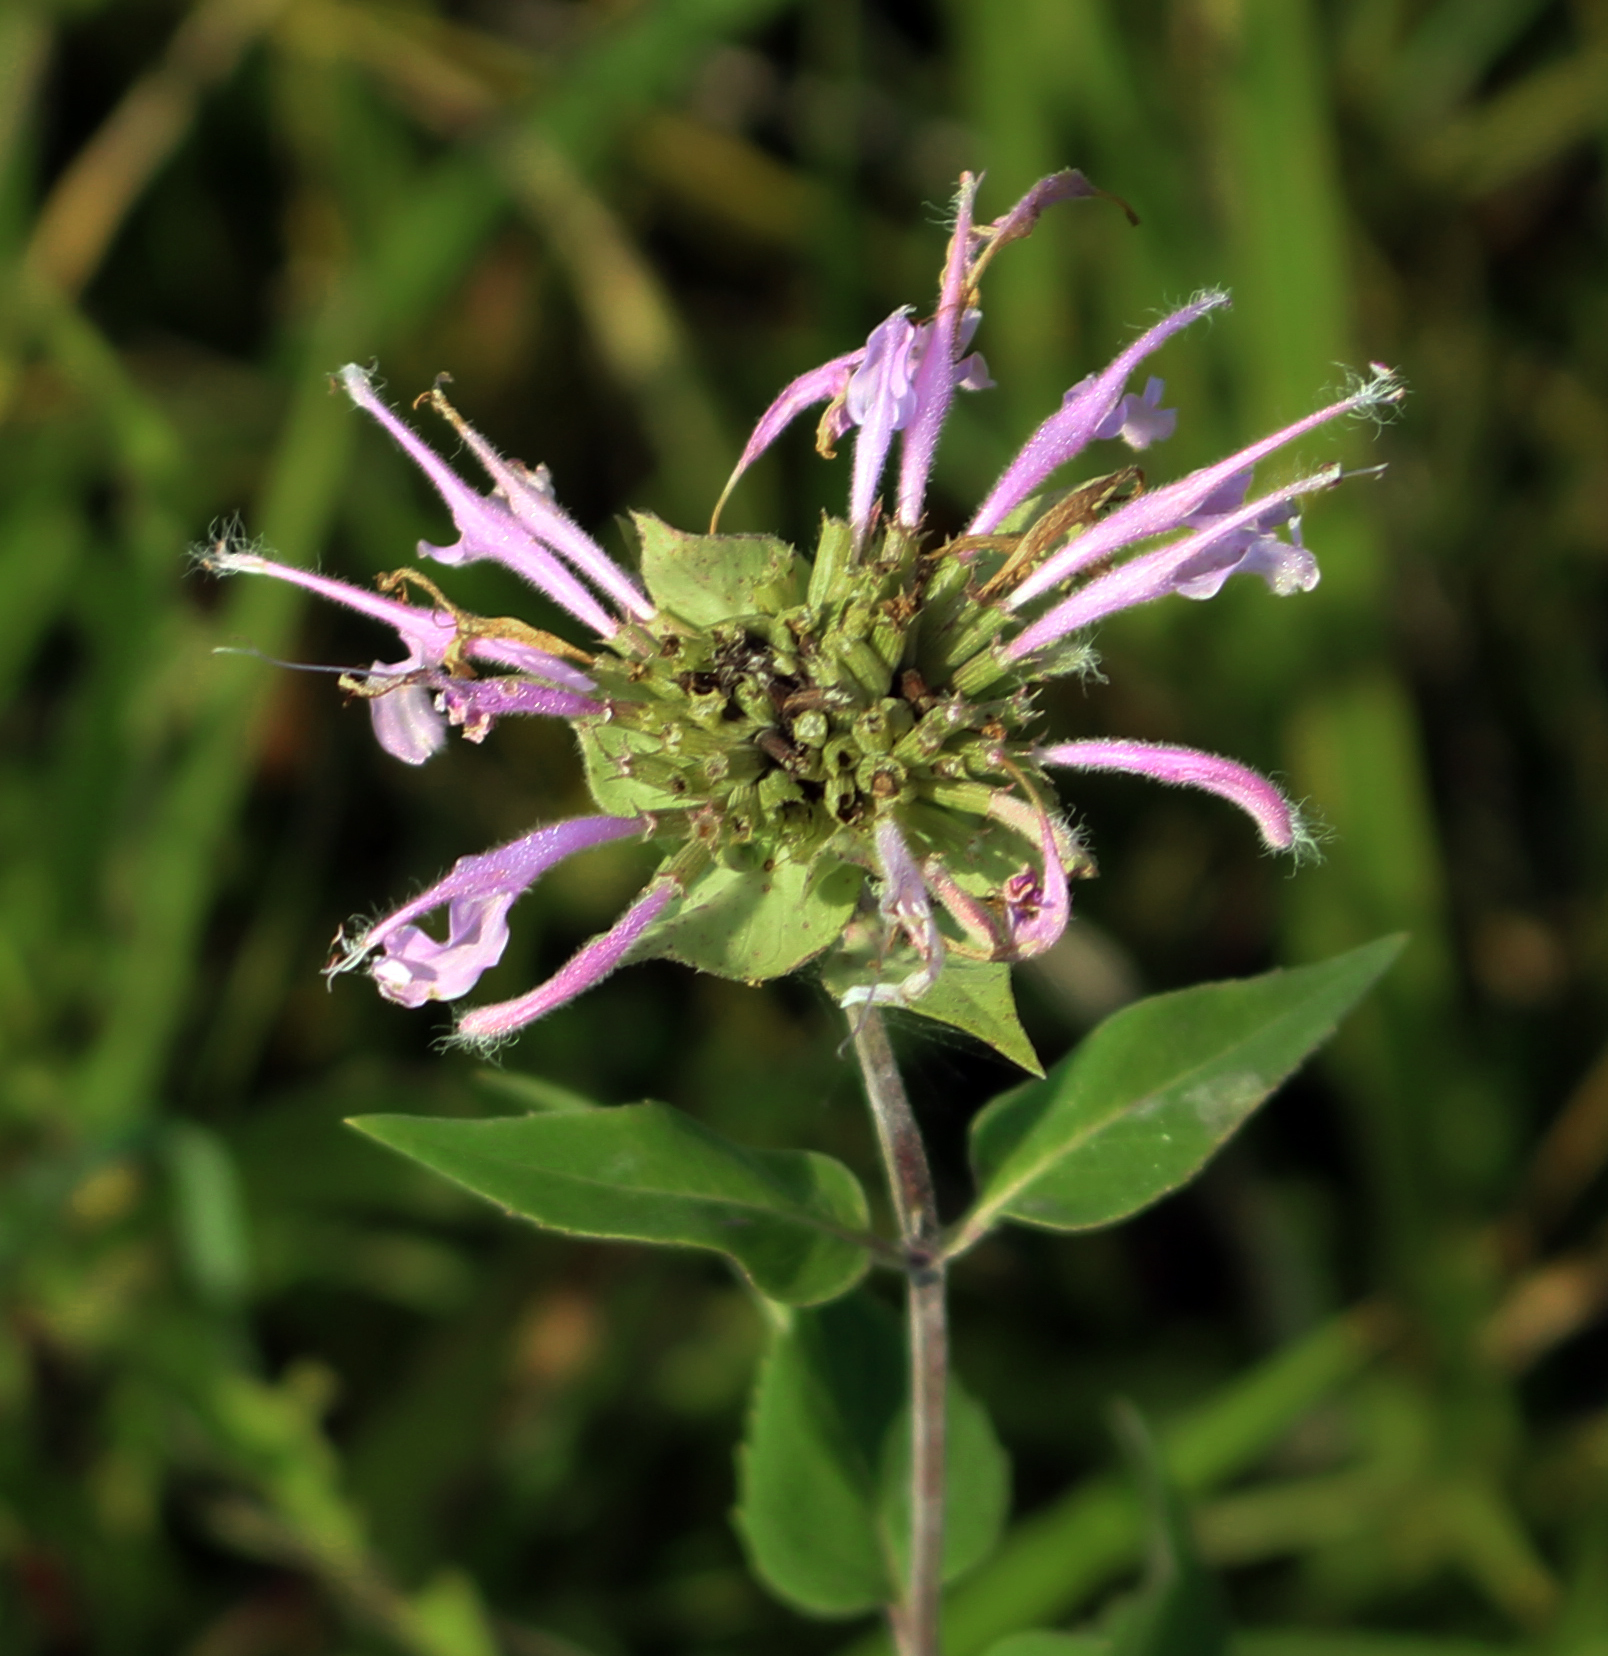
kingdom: Plantae
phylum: Tracheophyta
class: Magnoliopsida
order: Lamiales
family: Lamiaceae
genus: Monarda
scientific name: Monarda fistulosa
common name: Purple beebalm
